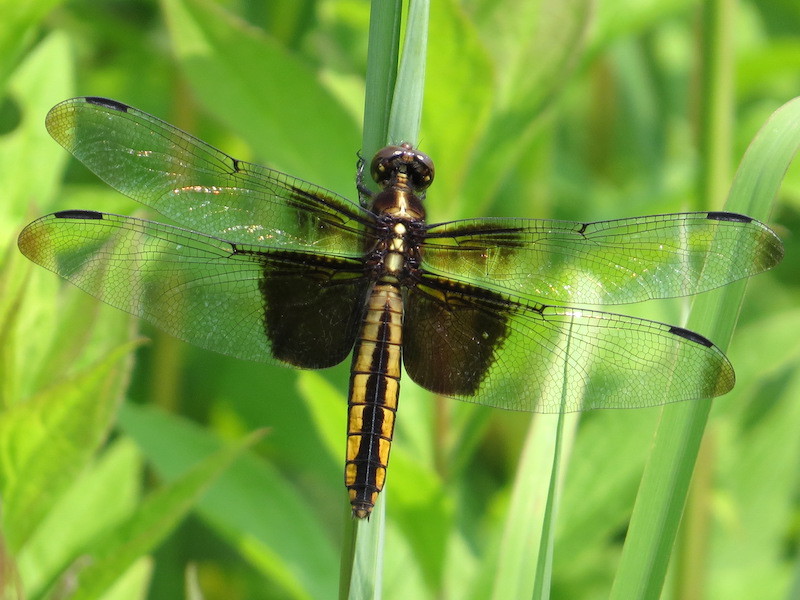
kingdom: Animalia
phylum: Arthropoda
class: Insecta
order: Odonata
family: Libellulidae
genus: Libellula
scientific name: Libellula luctuosa
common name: Widow skimmer
